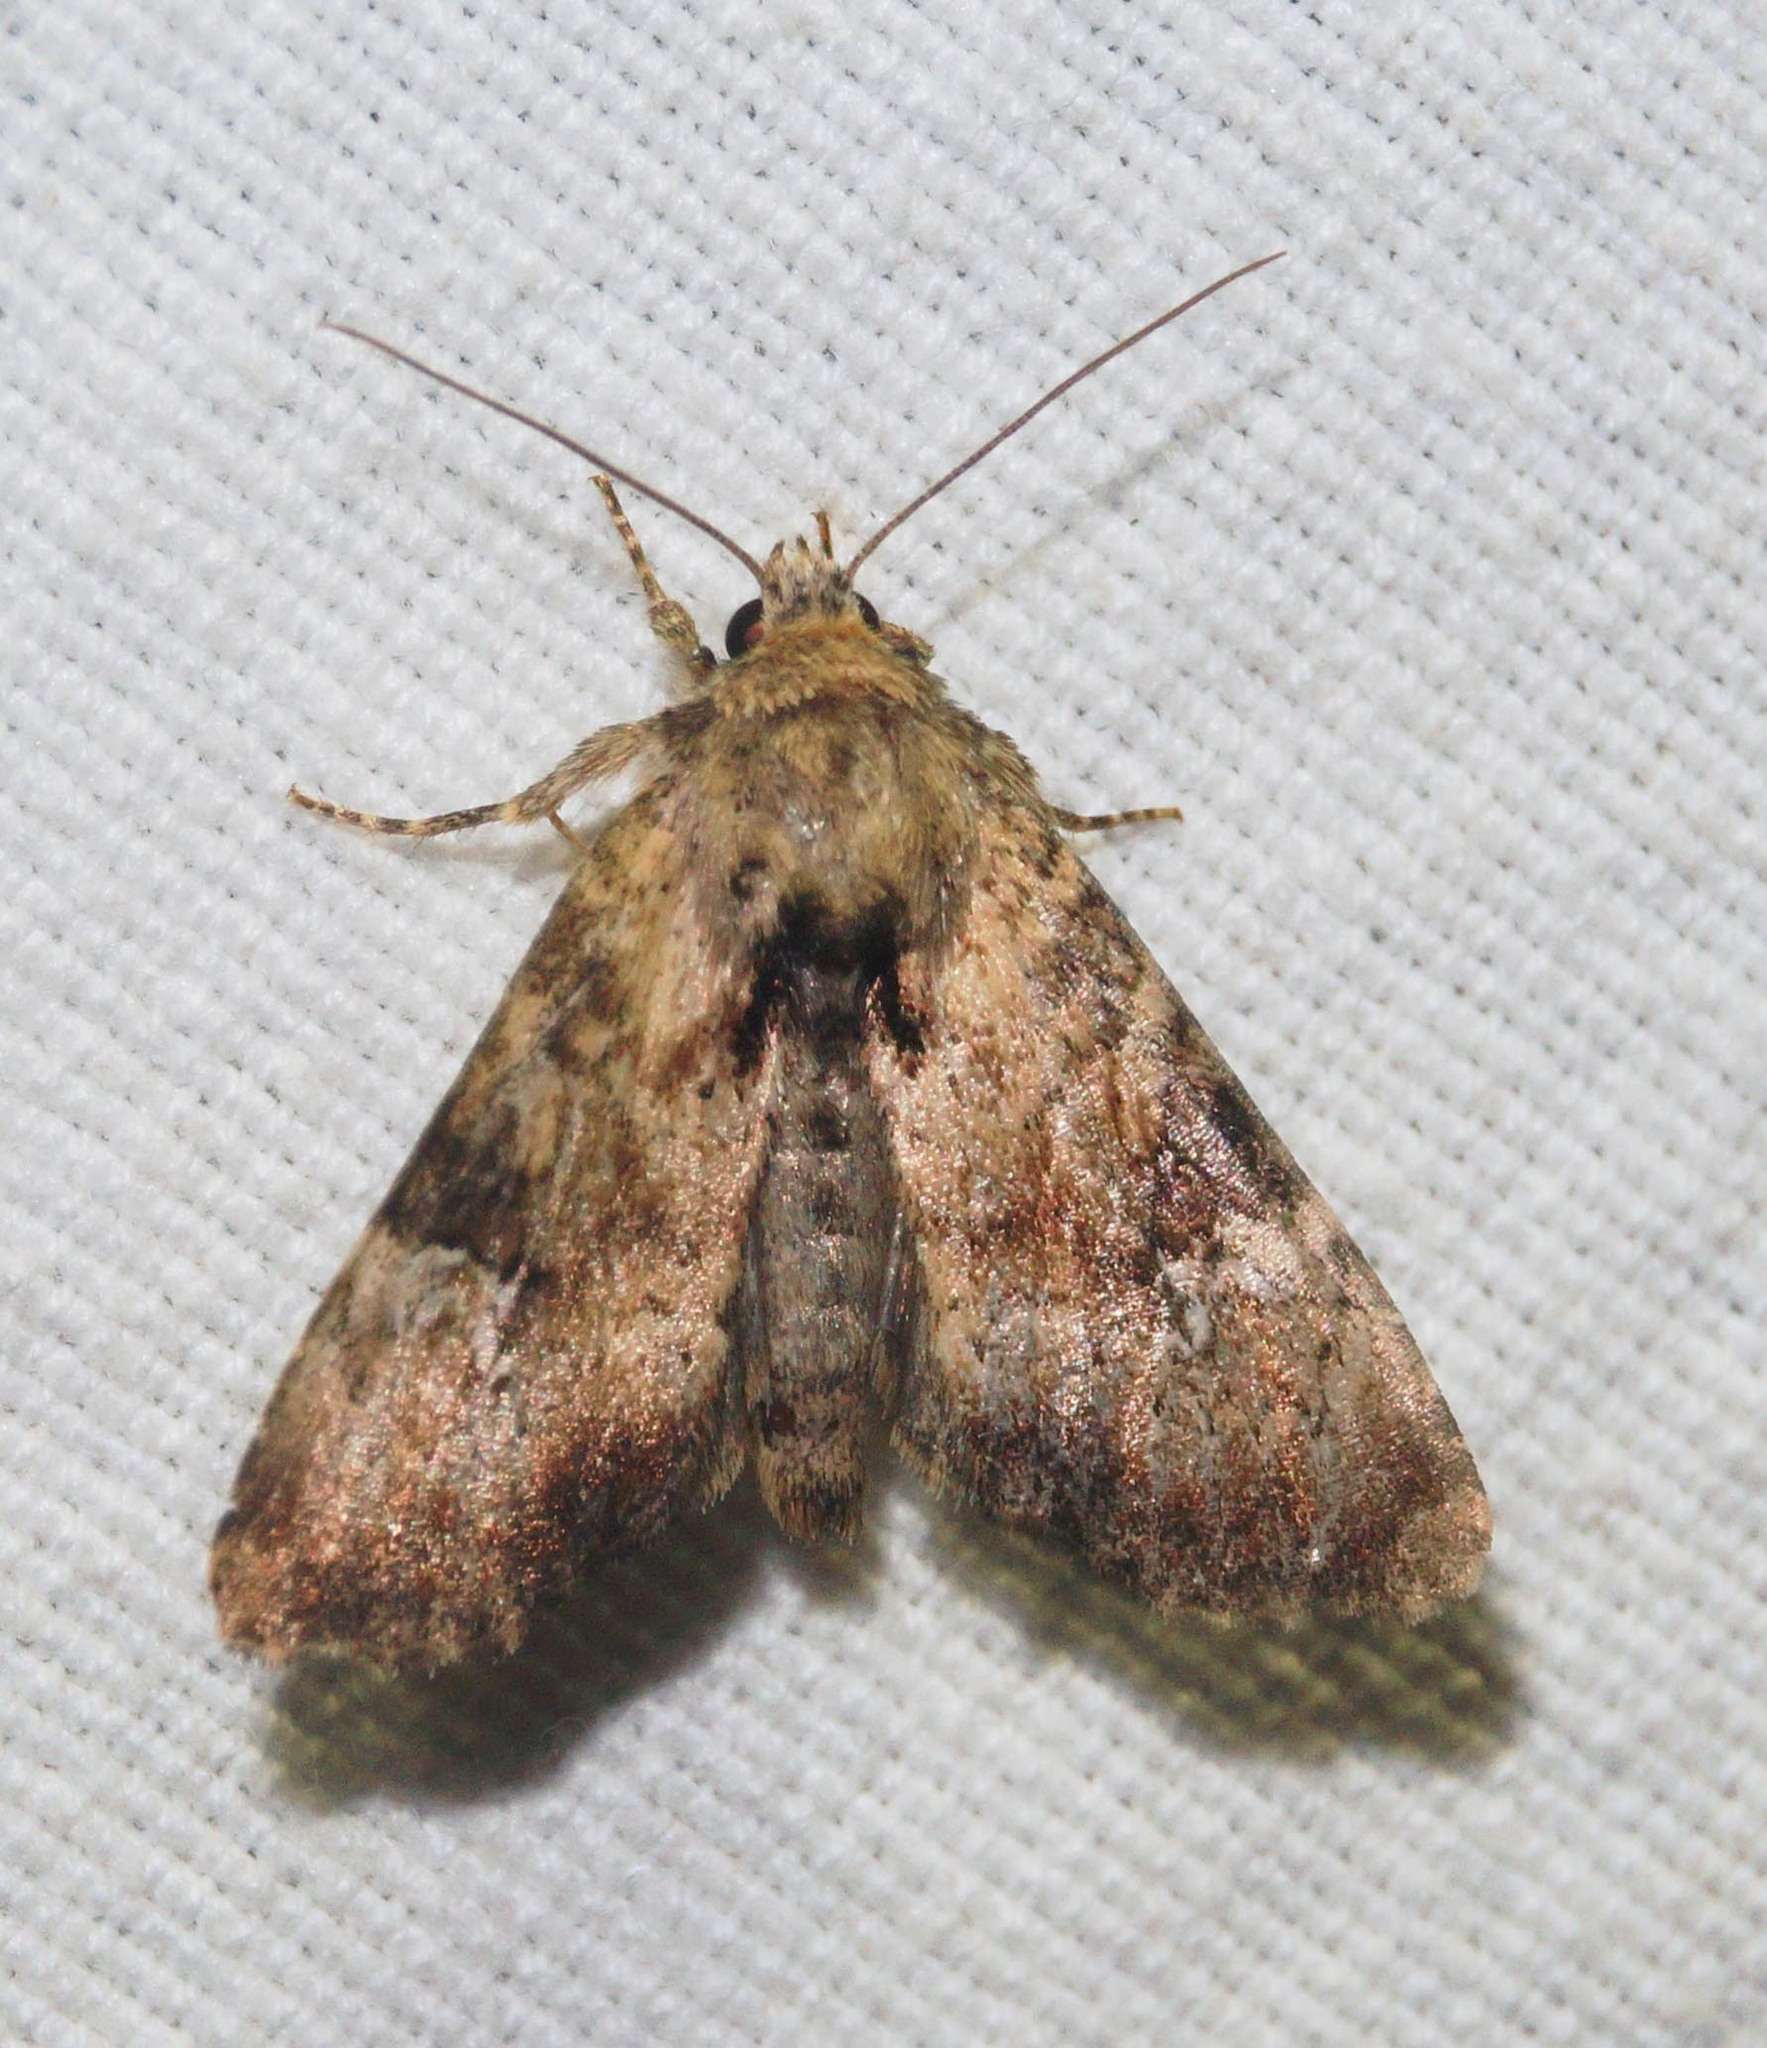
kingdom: Animalia
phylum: Arthropoda
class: Insecta
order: Lepidoptera
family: Noctuidae
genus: Loscopia
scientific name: Loscopia scolopacina
